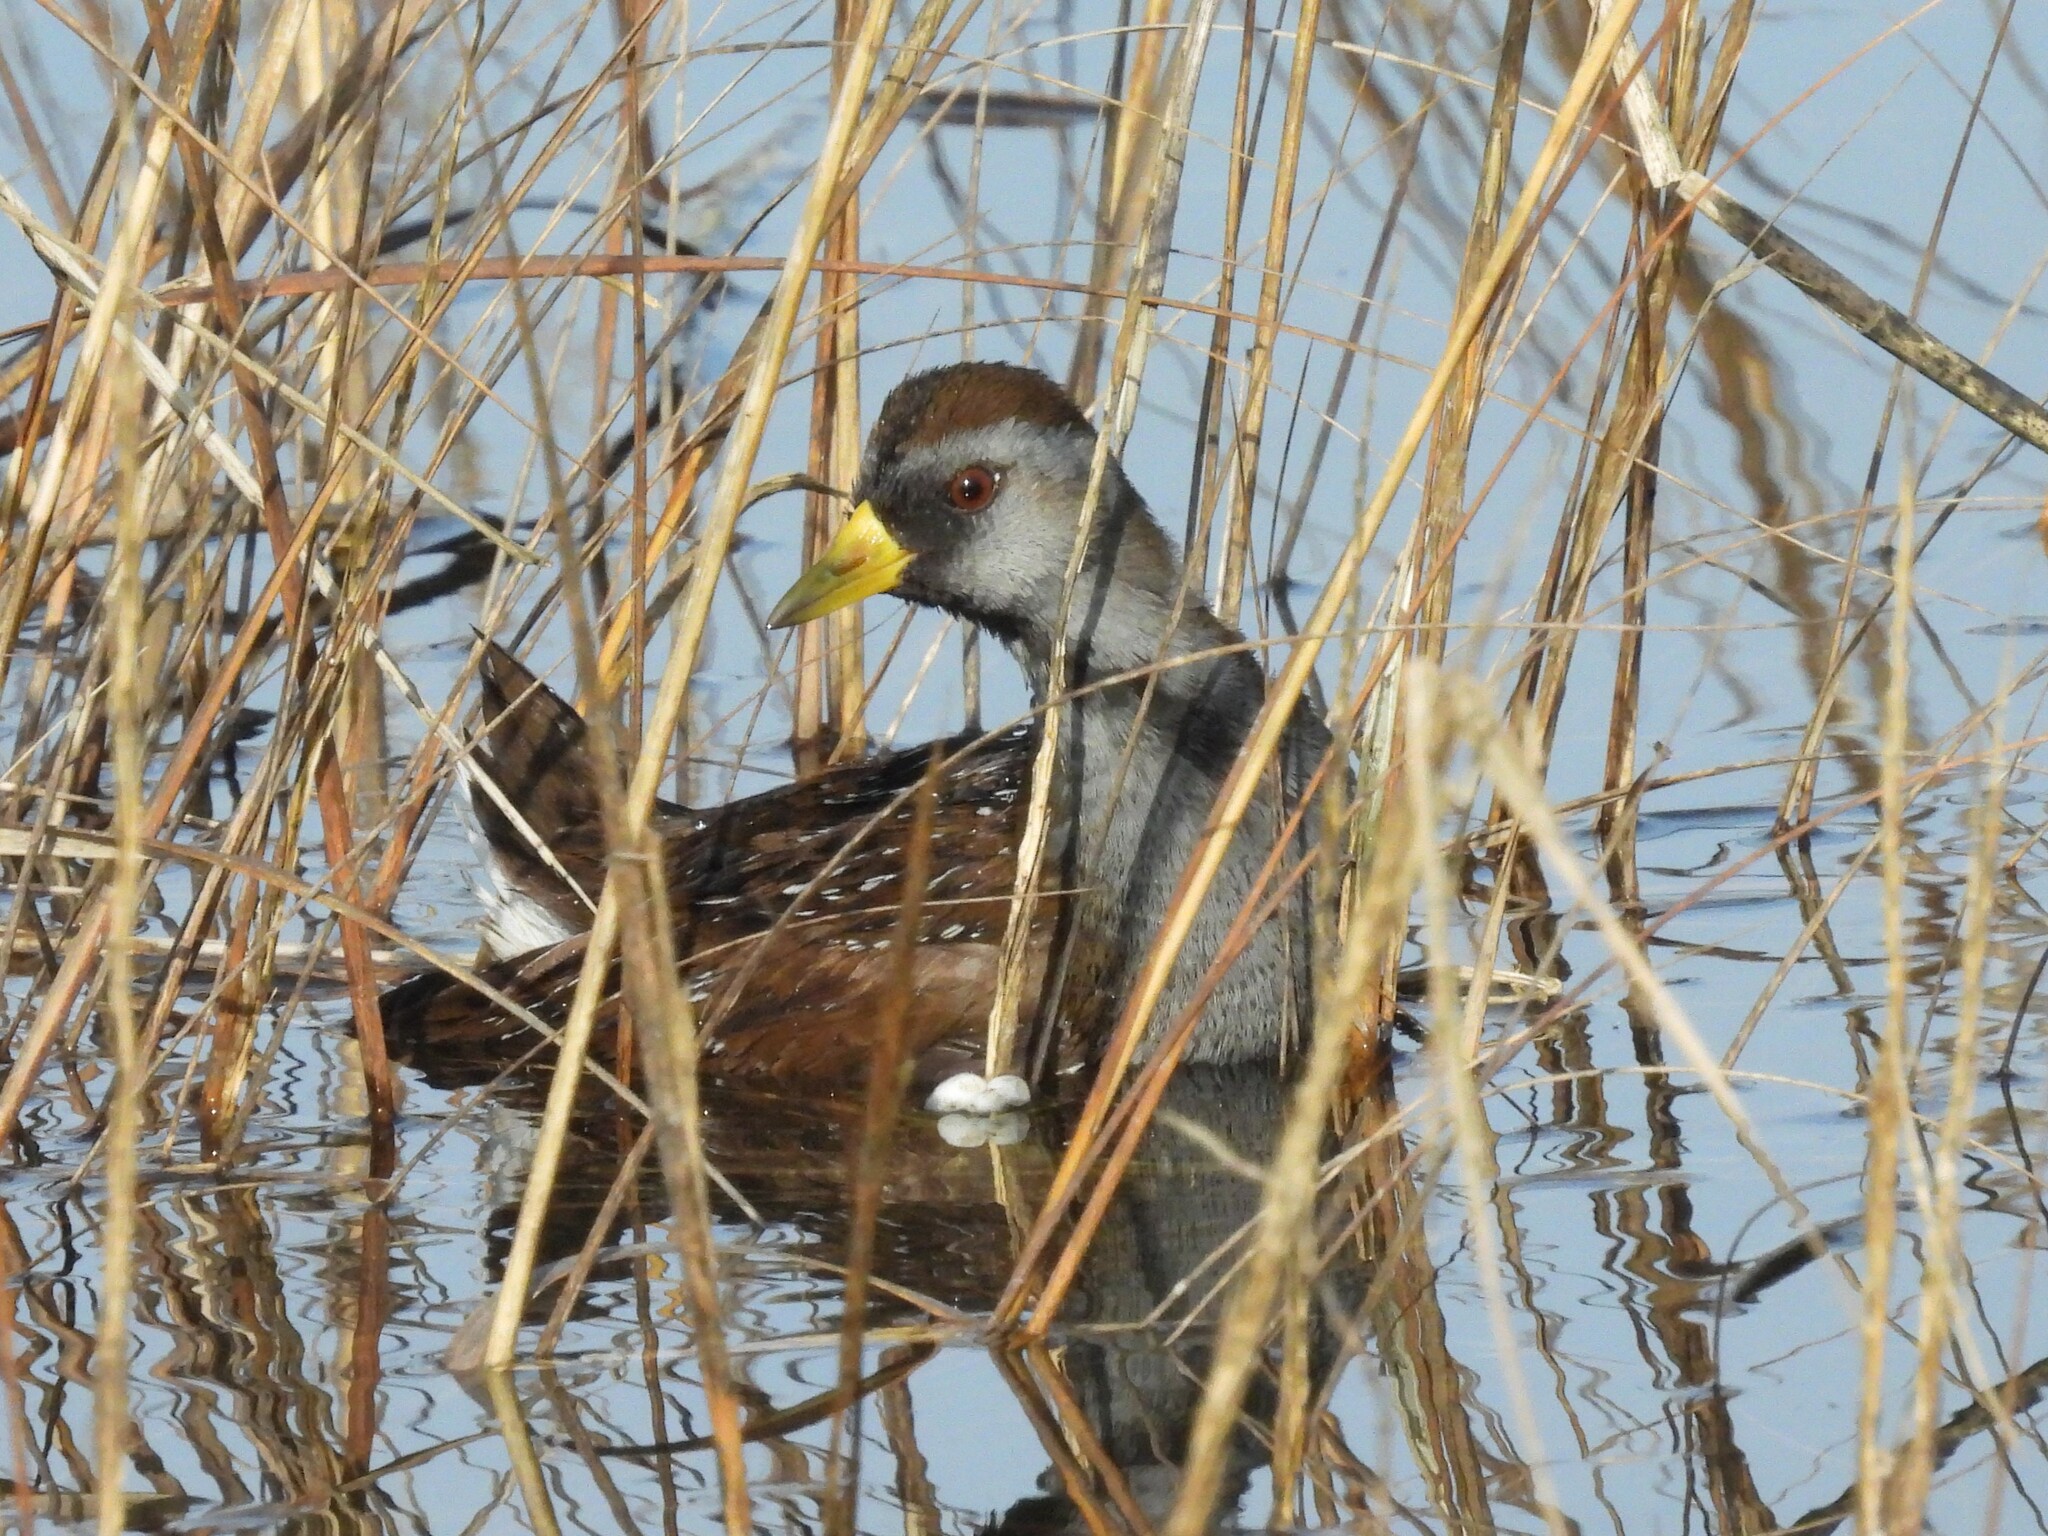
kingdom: Animalia
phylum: Chordata
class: Aves
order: Gruiformes
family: Rallidae
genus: Porzana
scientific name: Porzana carolina
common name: Sora
